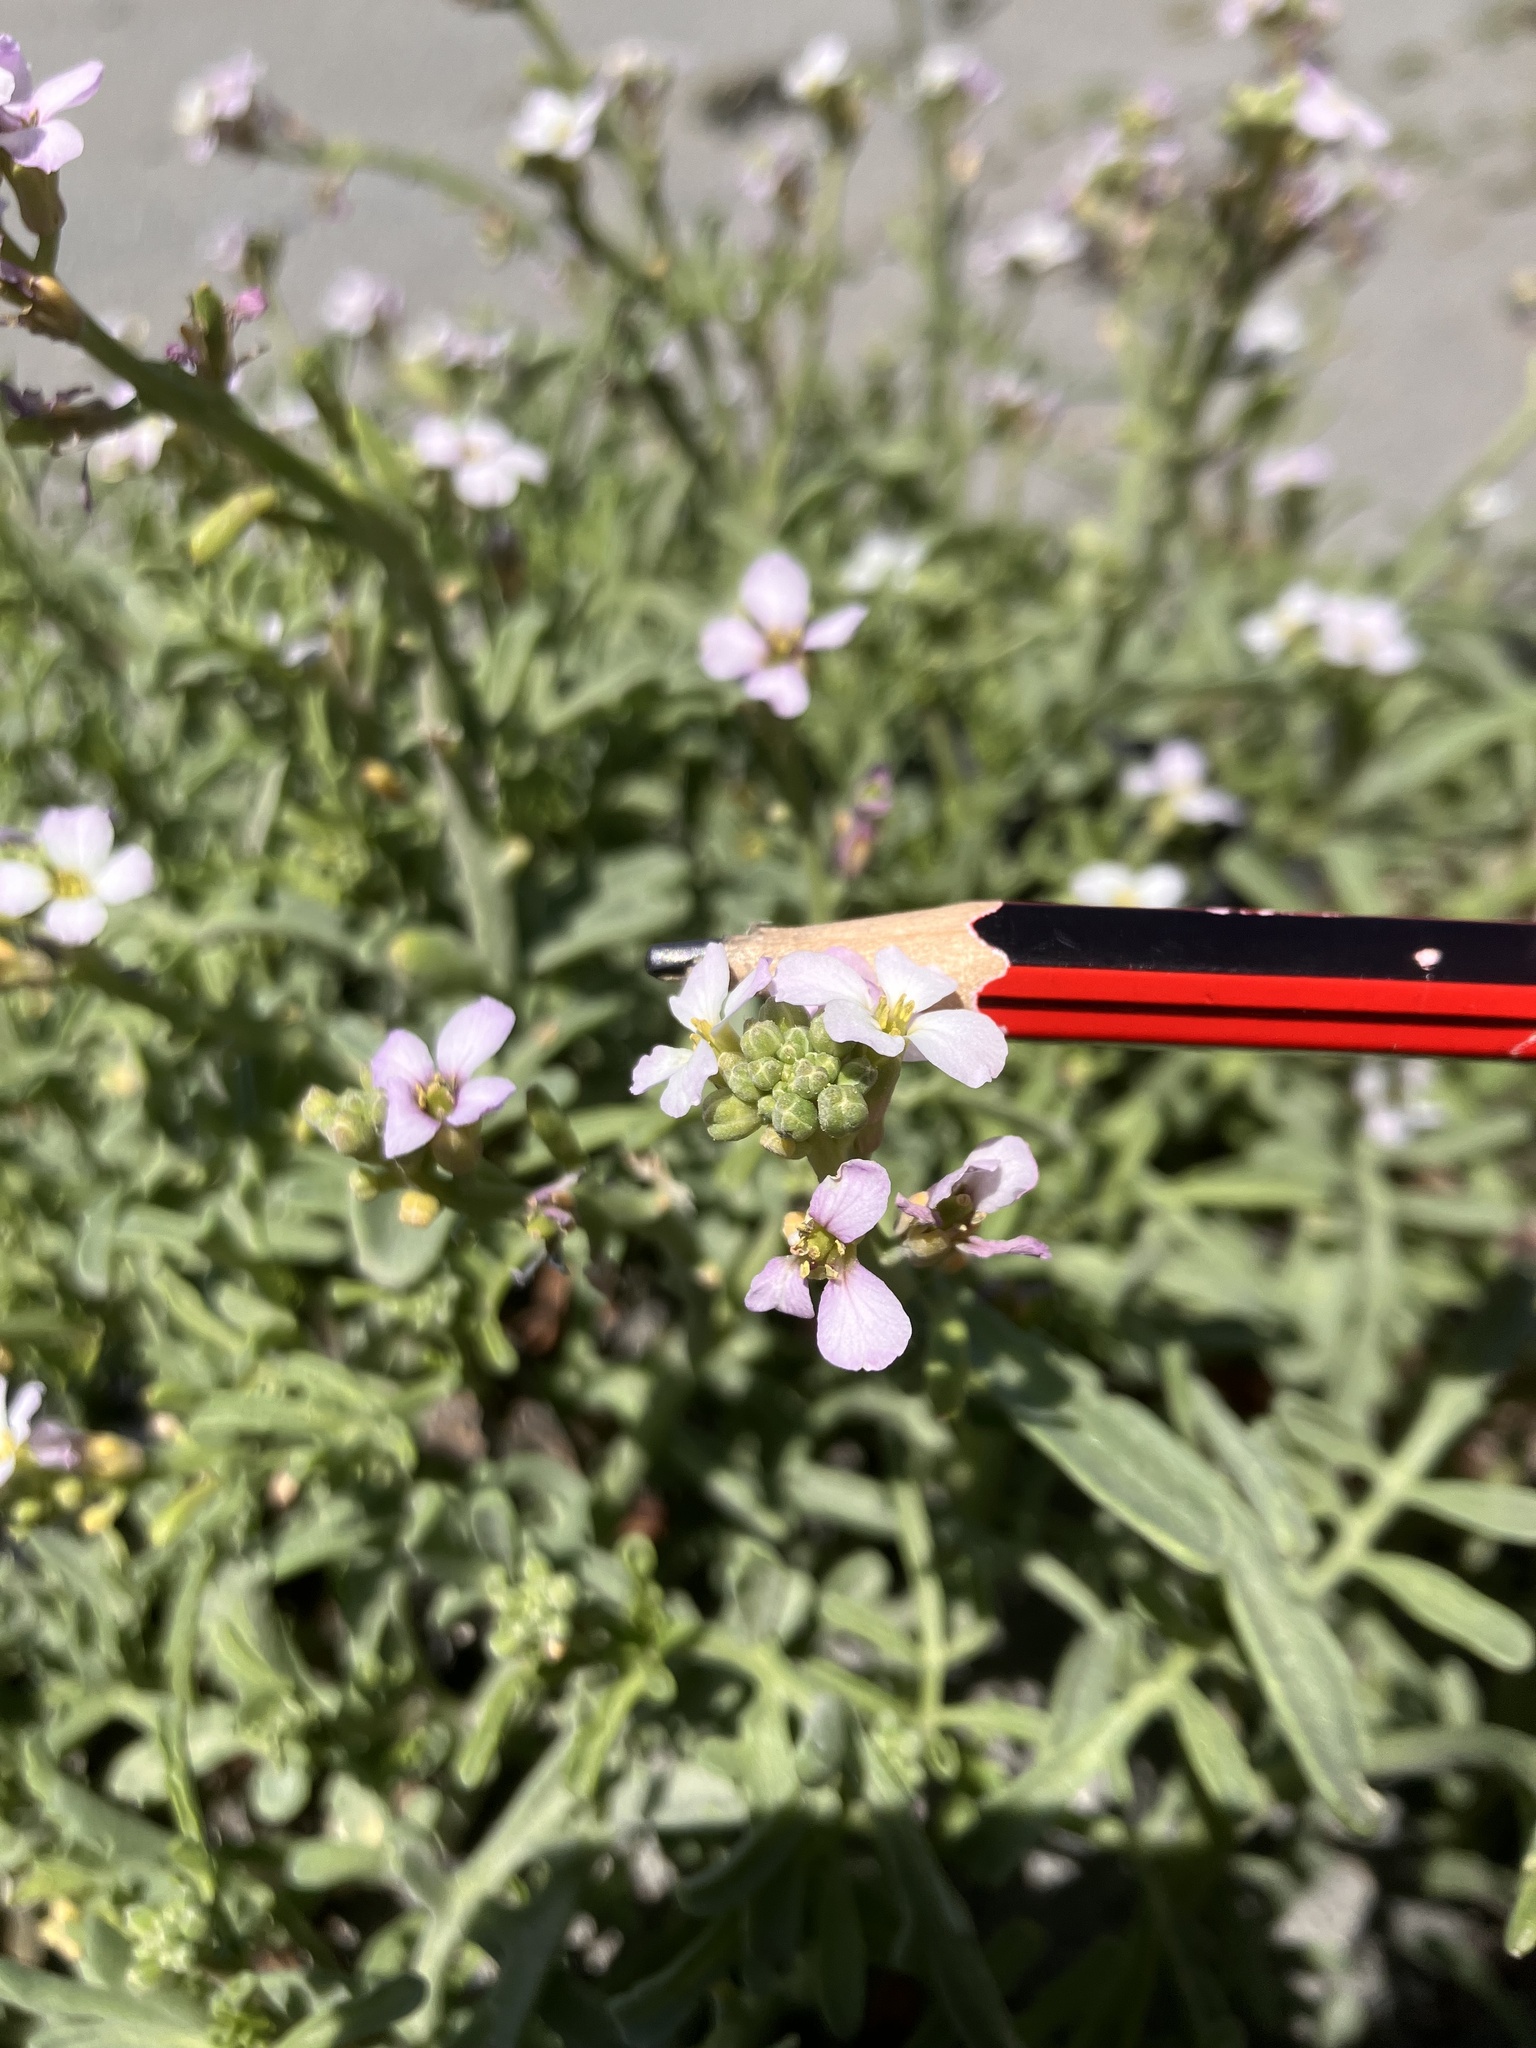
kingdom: Plantae
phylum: Tracheophyta
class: Magnoliopsida
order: Brassicales
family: Brassicaceae
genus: Cakile
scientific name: Cakile maritima
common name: Sea rocket
